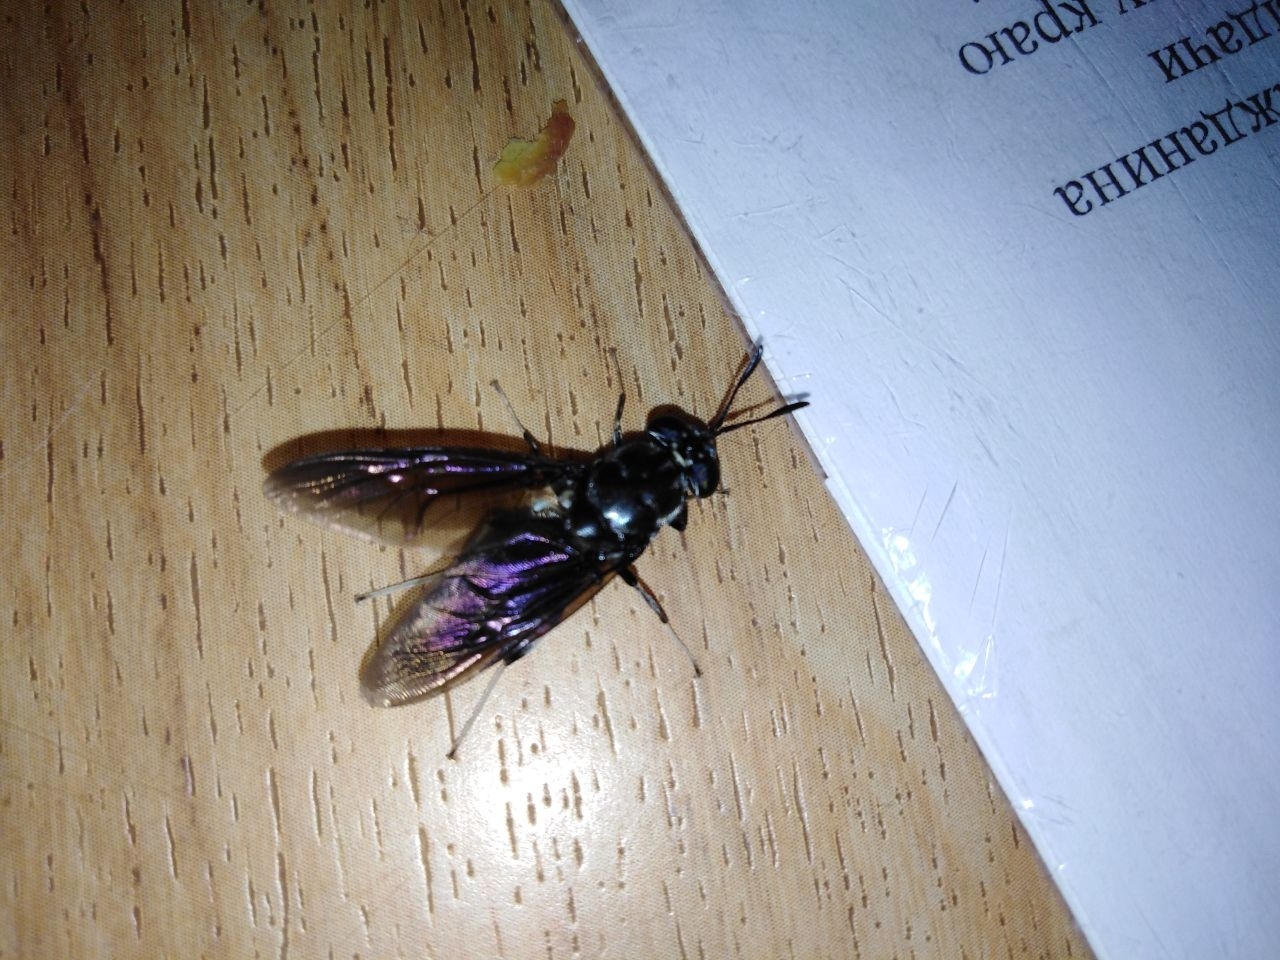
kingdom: Animalia
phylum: Arthropoda
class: Insecta
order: Diptera
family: Stratiomyidae
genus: Hermetia
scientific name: Hermetia illucens
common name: Black soldier fly
